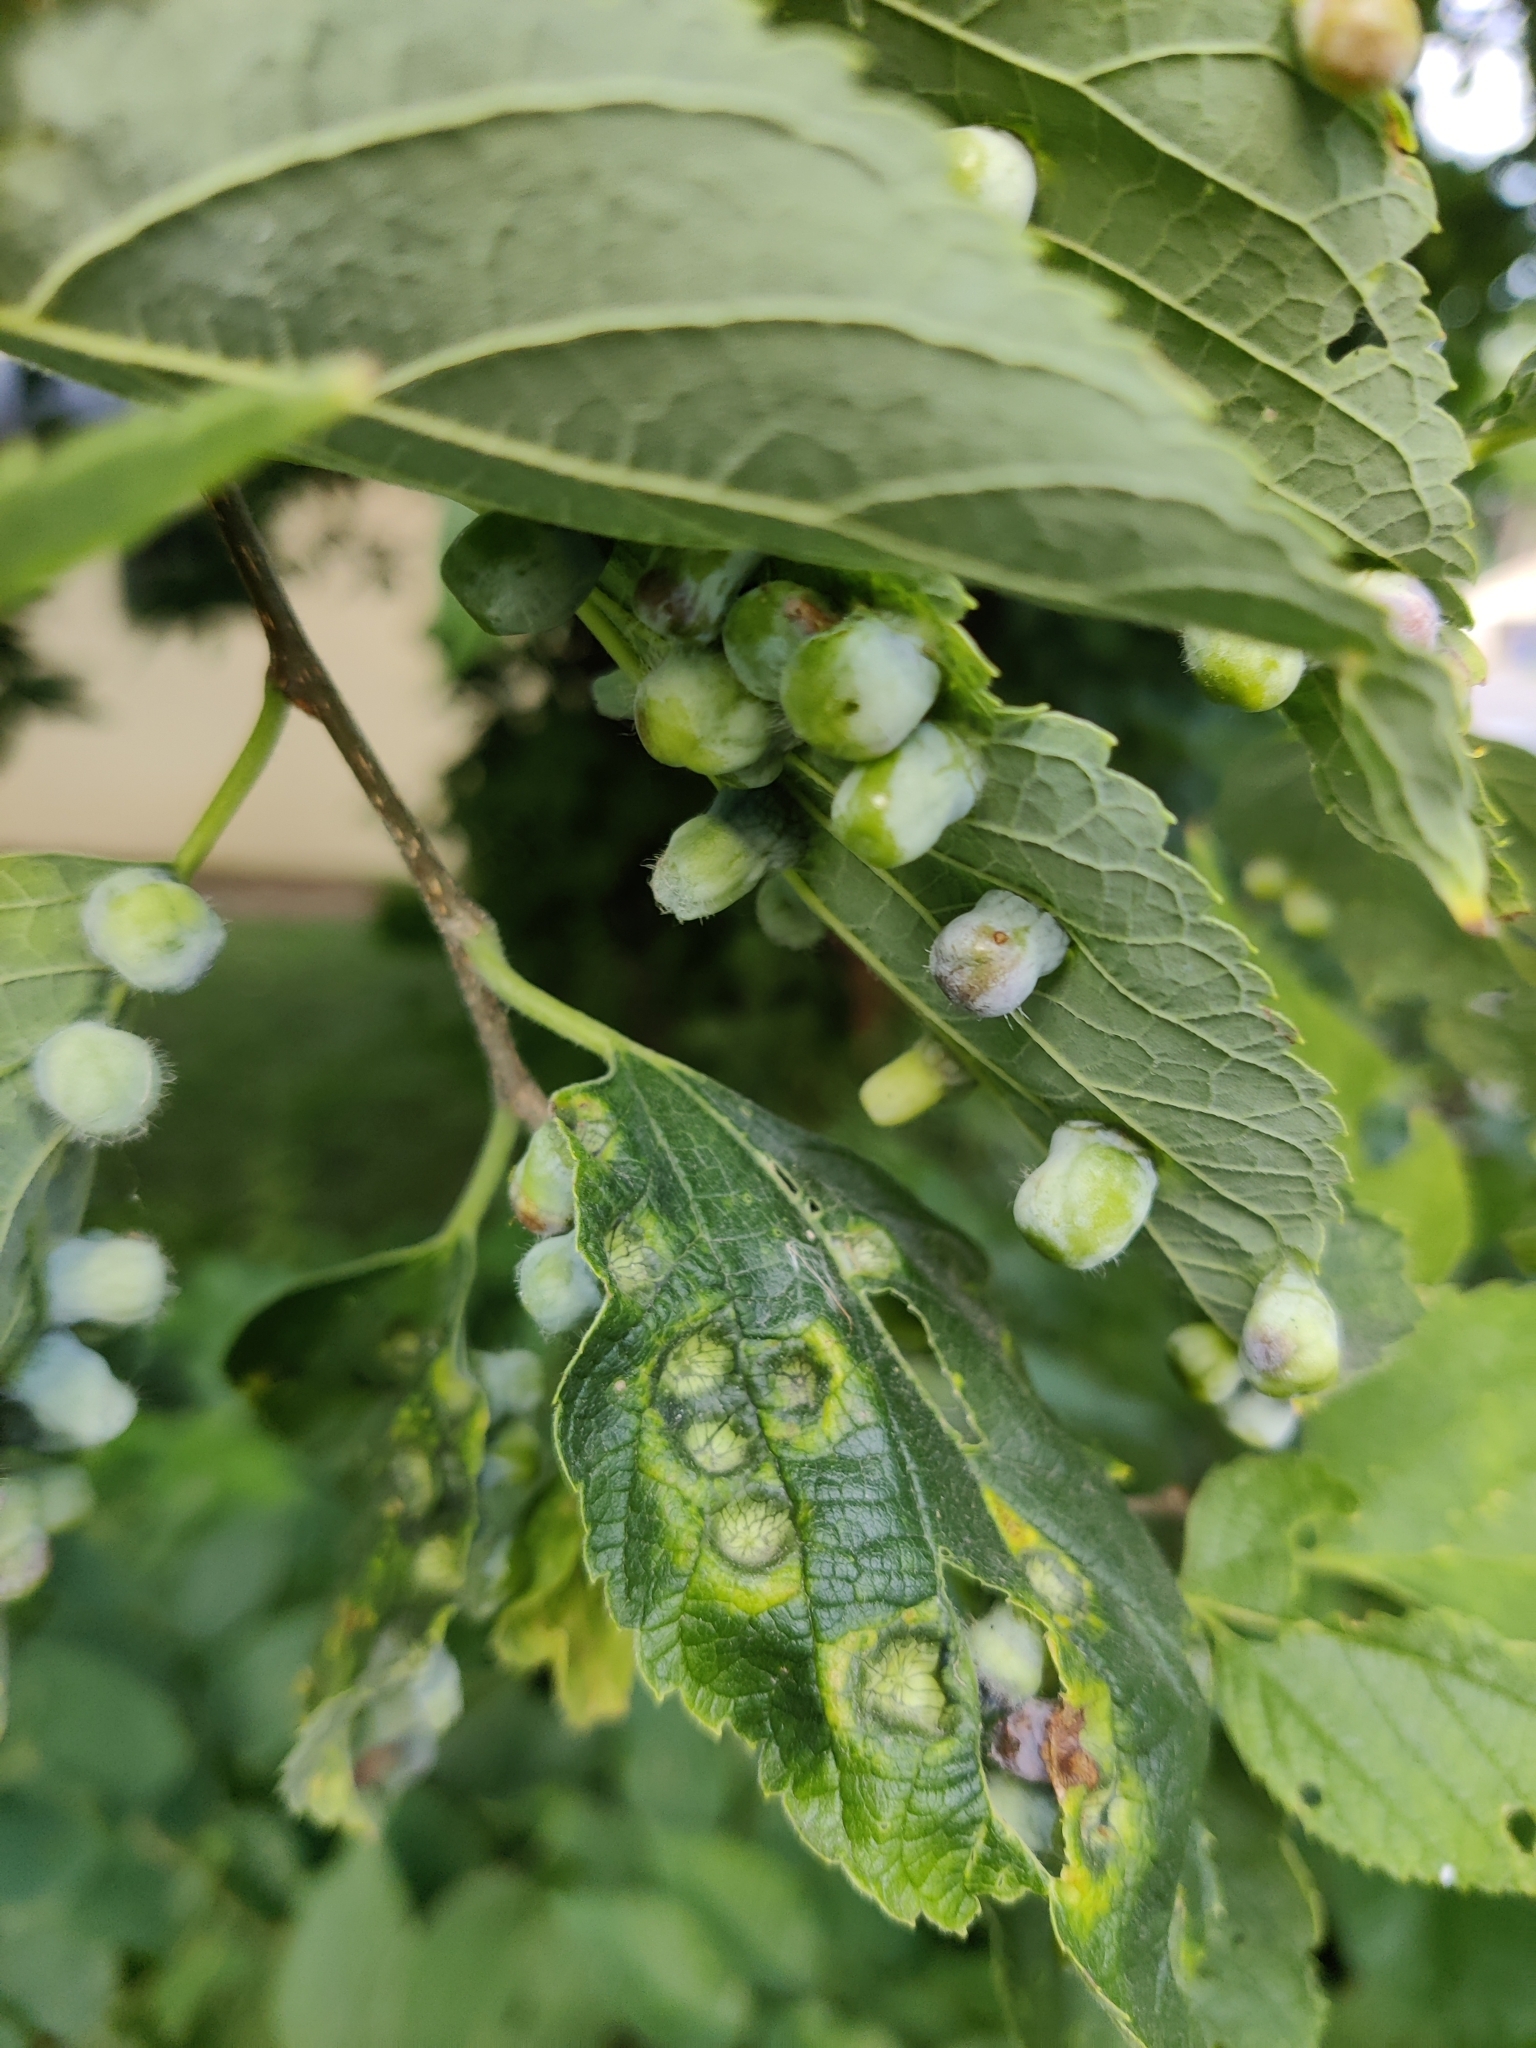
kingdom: Animalia
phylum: Arthropoda
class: Insecta
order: Hemiptera
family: Aphalaridae
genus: Pachypsylla
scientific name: Pachypsylla celtidismamma
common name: Hackberry nipplegall psyllid
